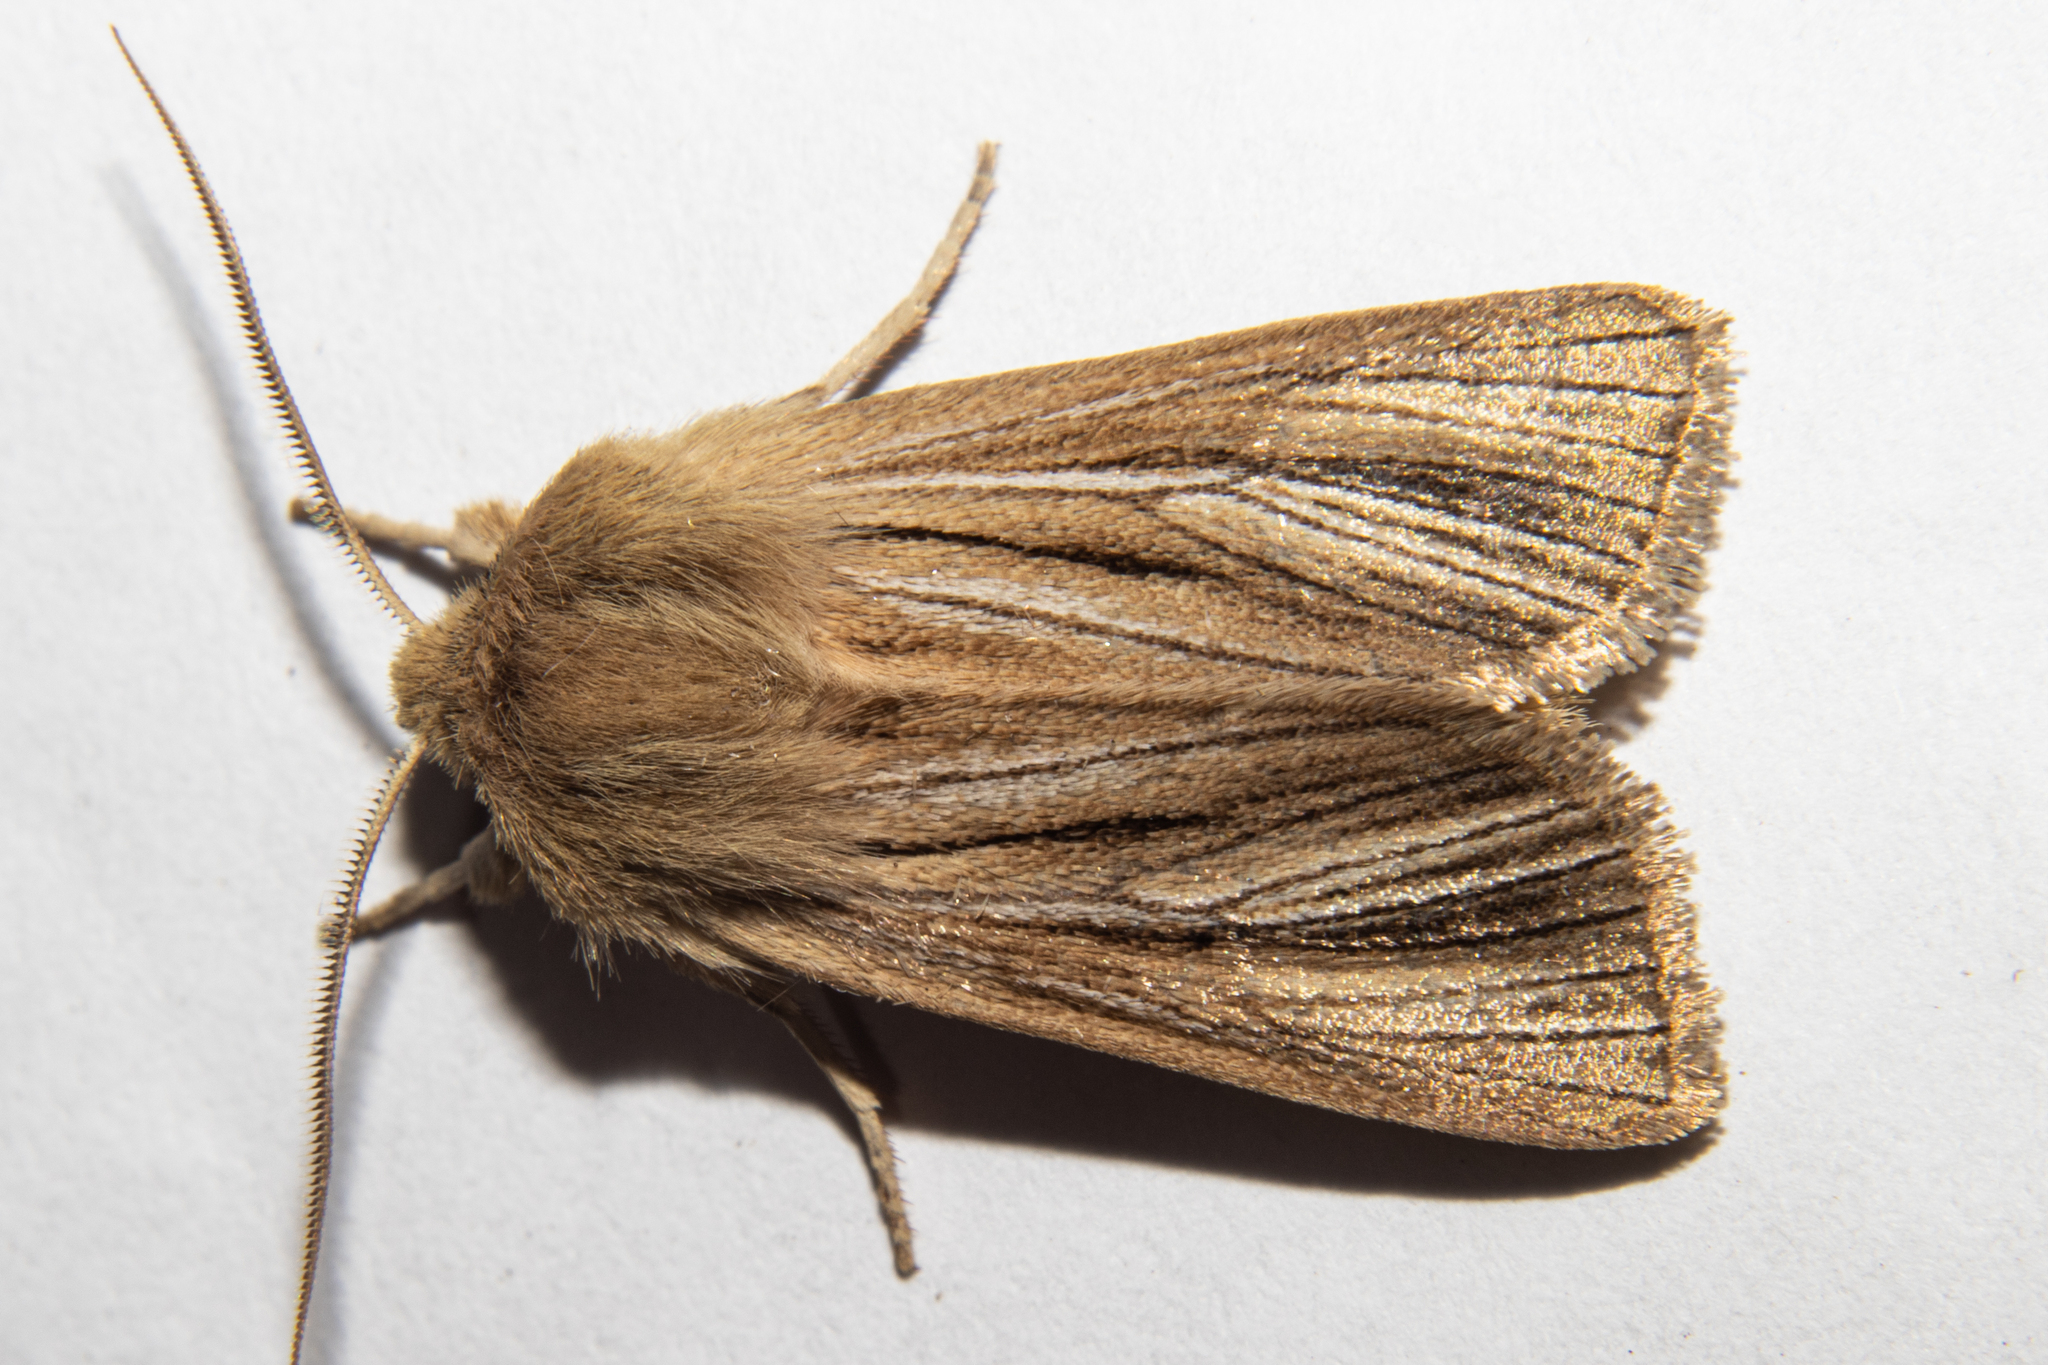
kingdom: Animalia
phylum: Arthropoda
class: Insecta
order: Lepidoptera
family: Noctuidae
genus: Ichneutica
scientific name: Ichneutica
